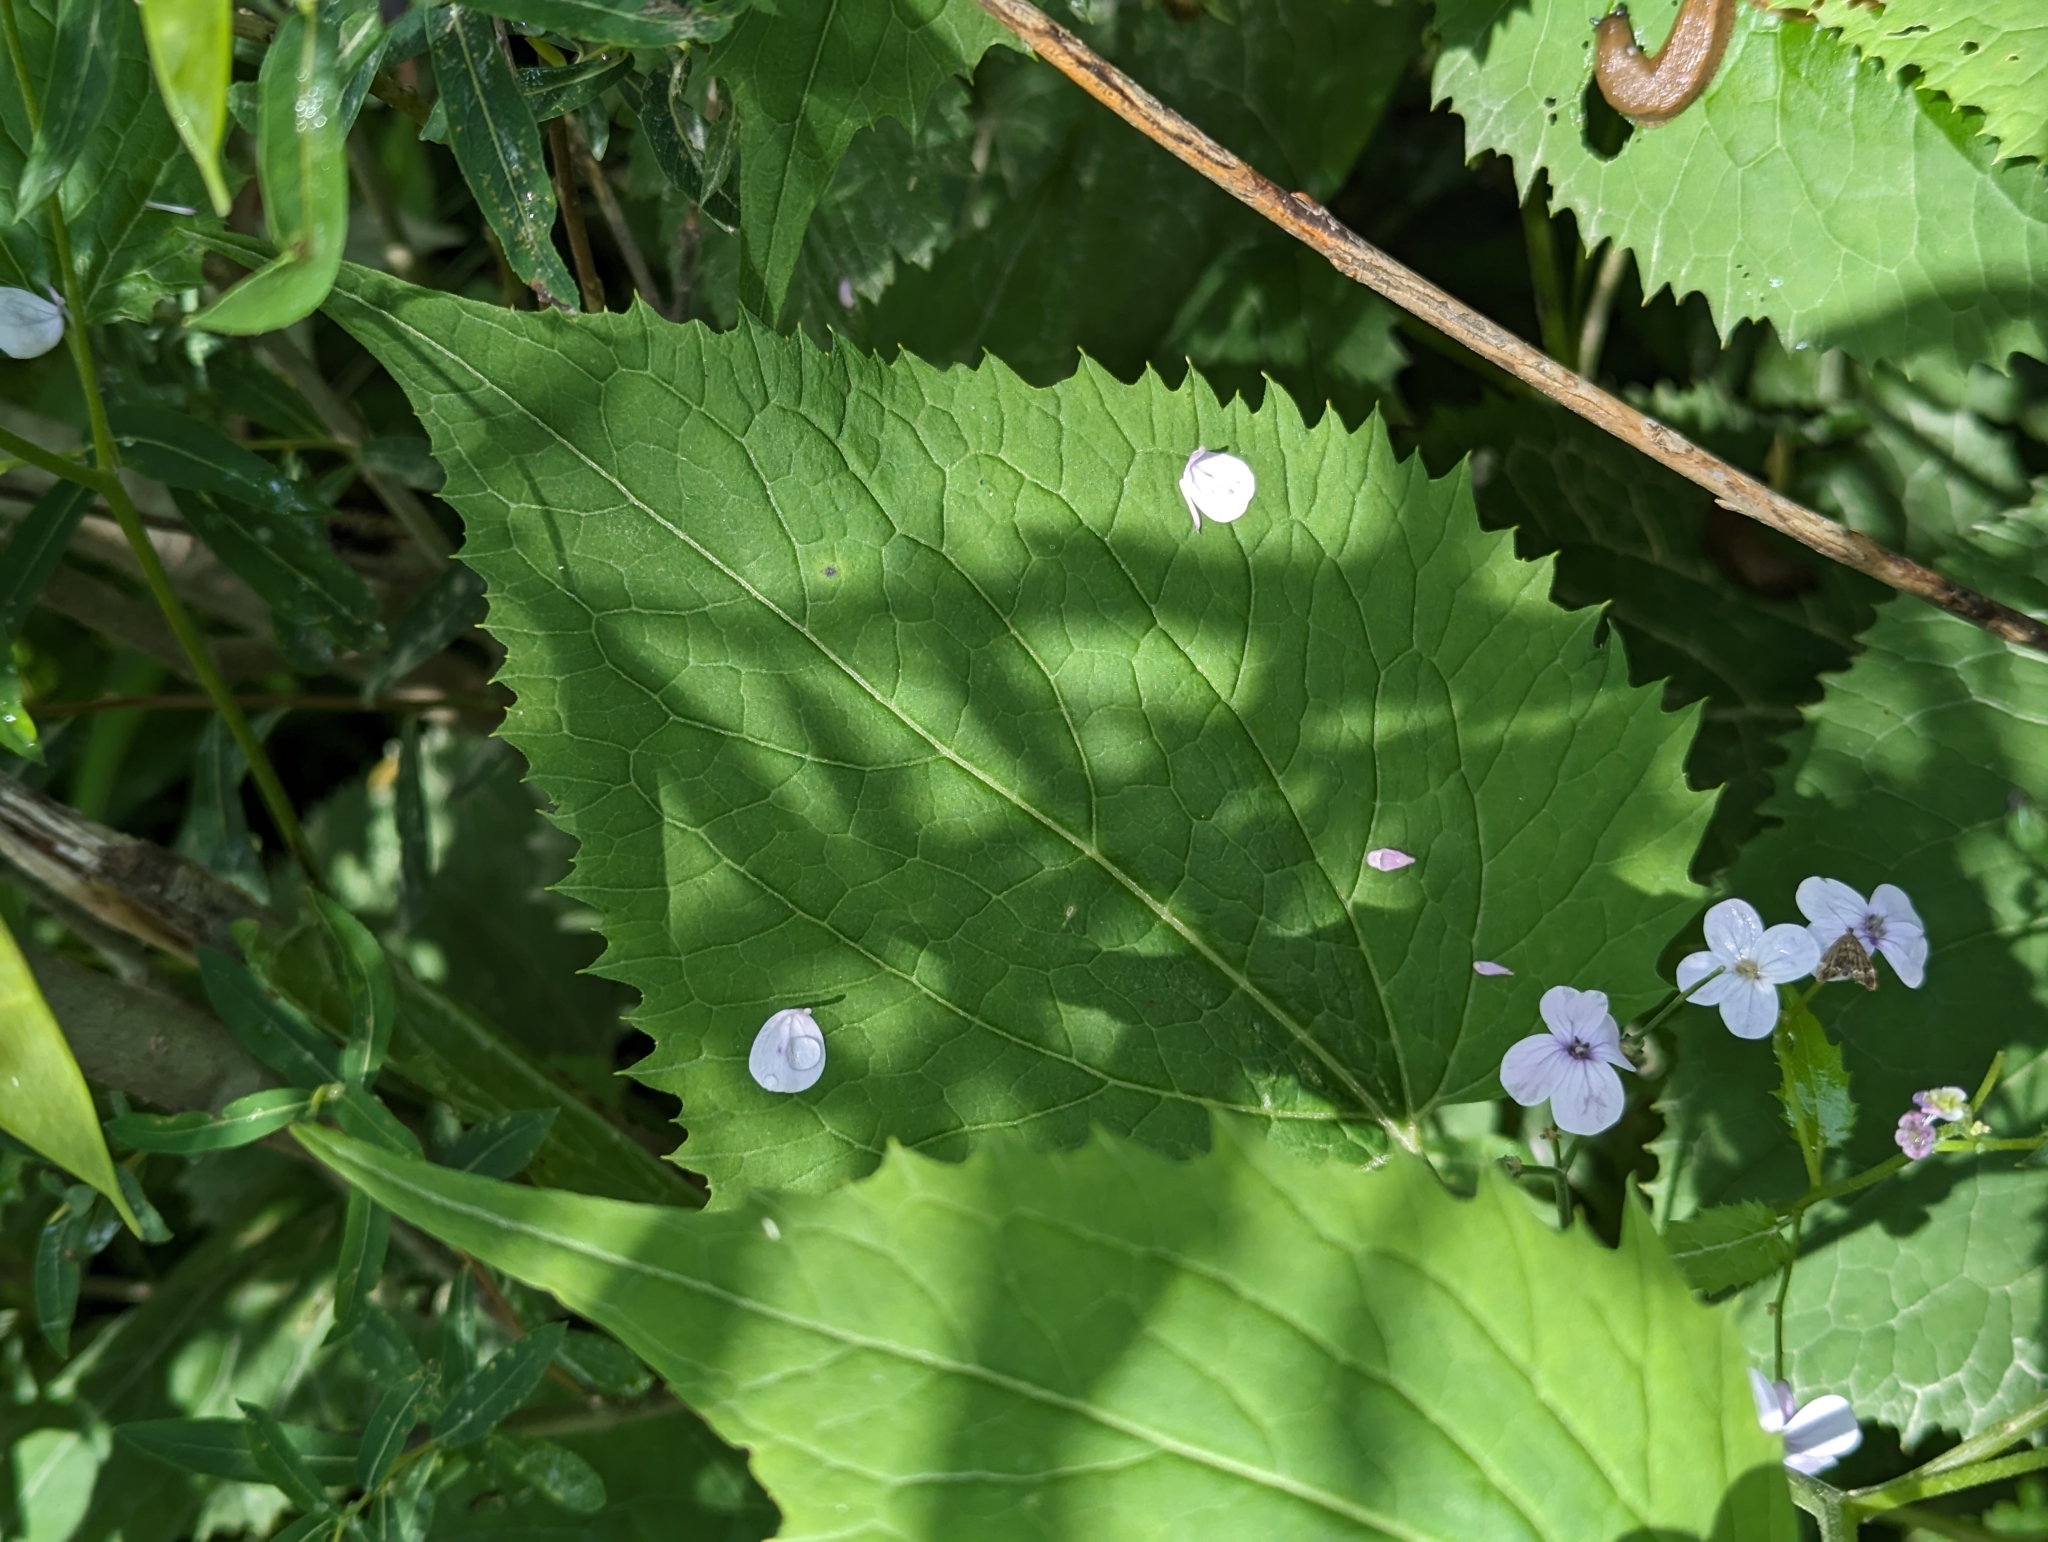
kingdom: Plantae
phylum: Tracheophyta
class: Magnoliopsida
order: Brassicales
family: Brassicaceae
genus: Lunaria
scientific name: Lunaria rediviva
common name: Perennial honesty
